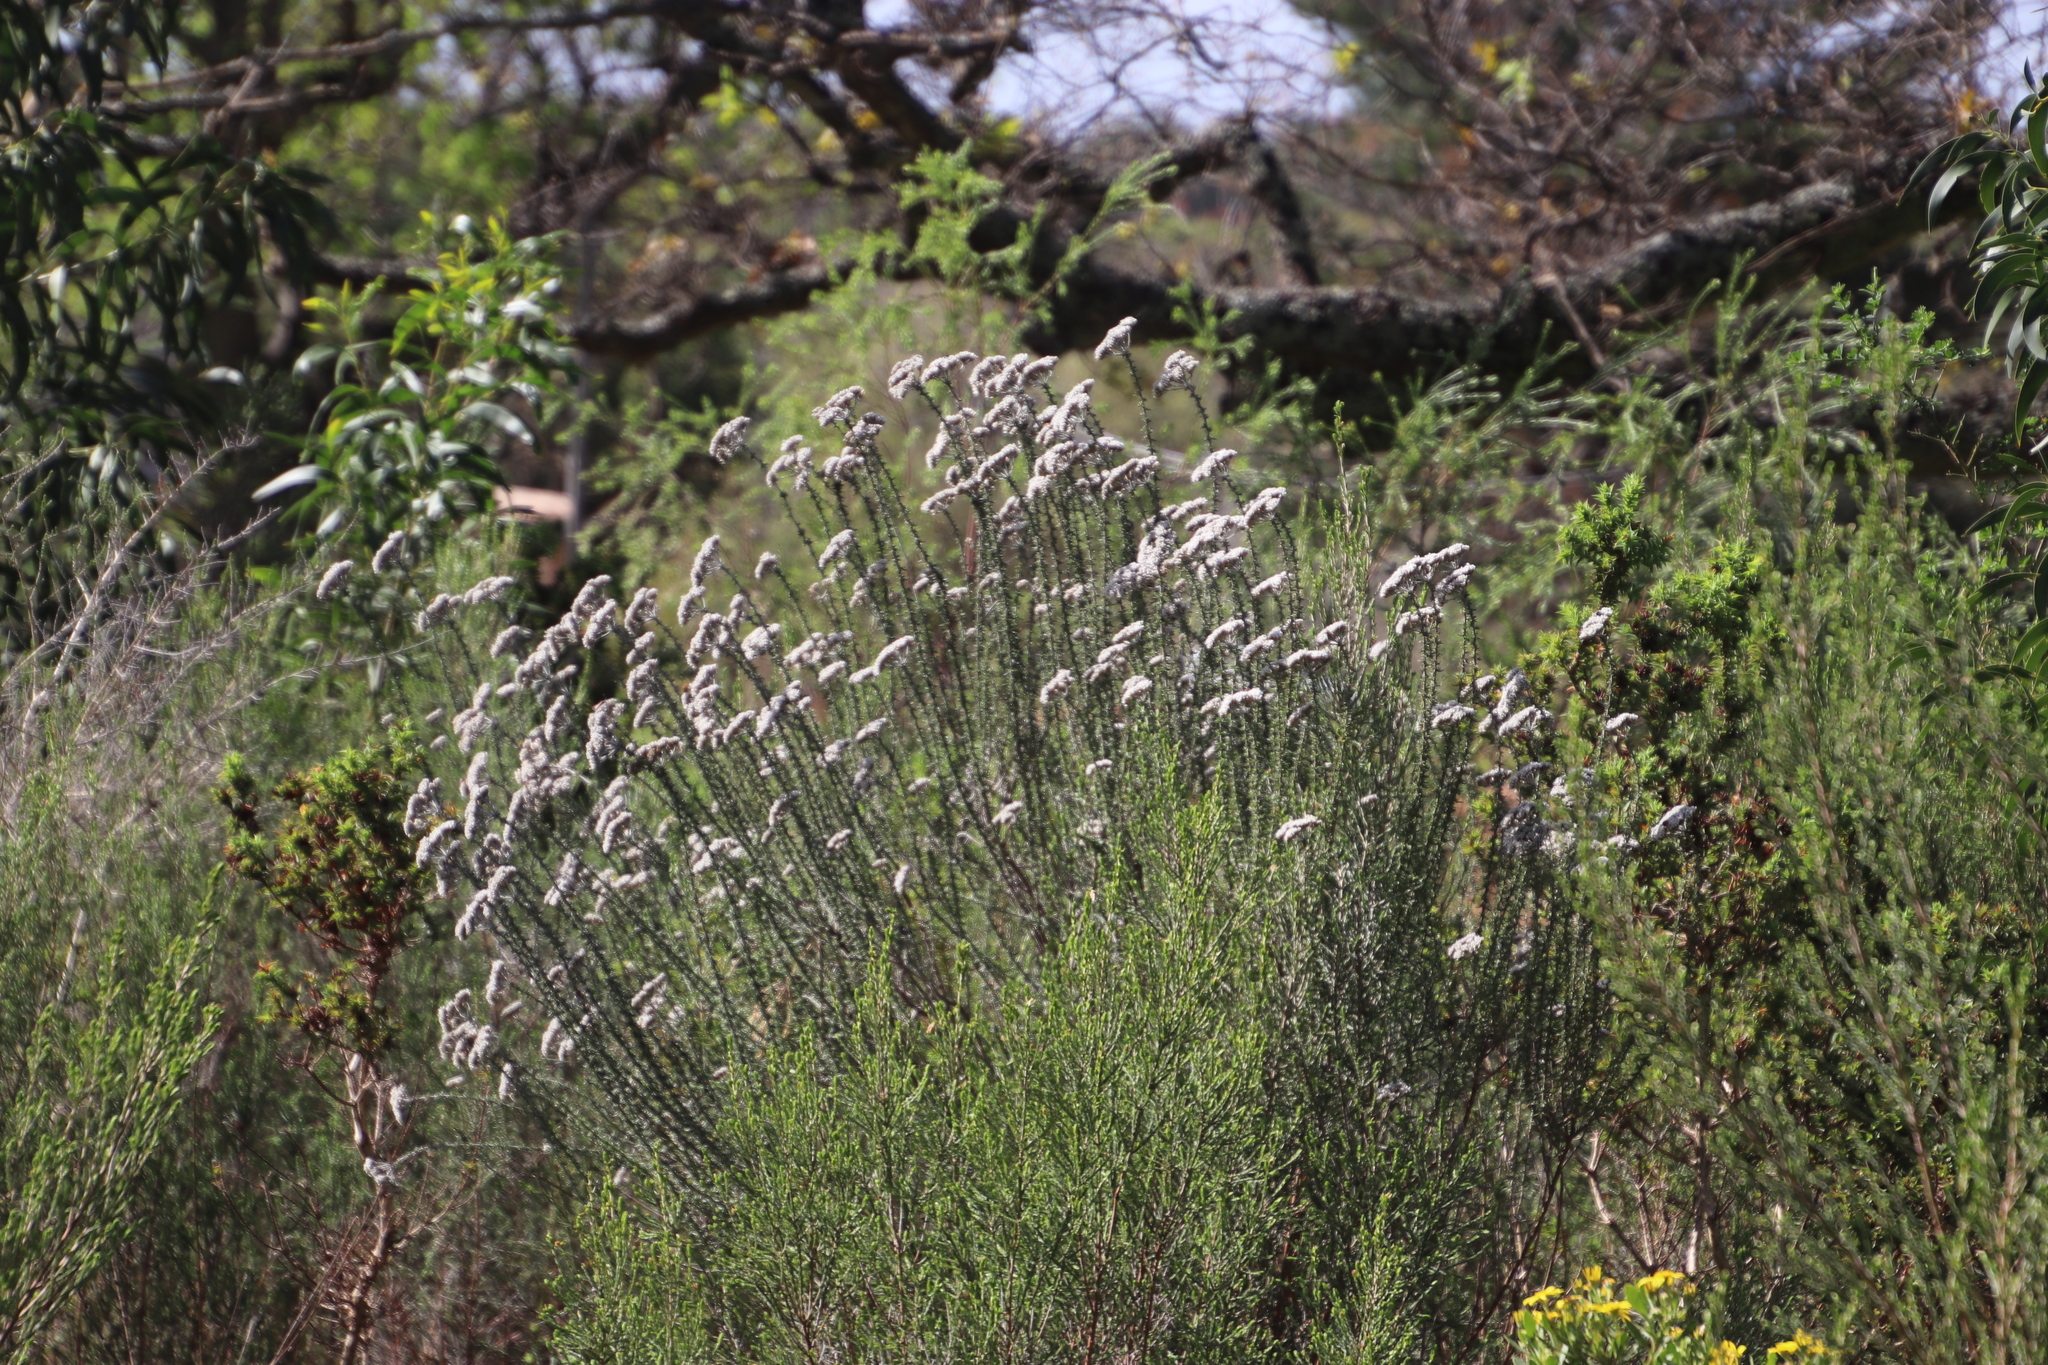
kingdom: Plantae
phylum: Tracheophyta
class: Magnoliopsida
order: Asterales
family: Asteraceae
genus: Metalasia
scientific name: Metalasia densa
